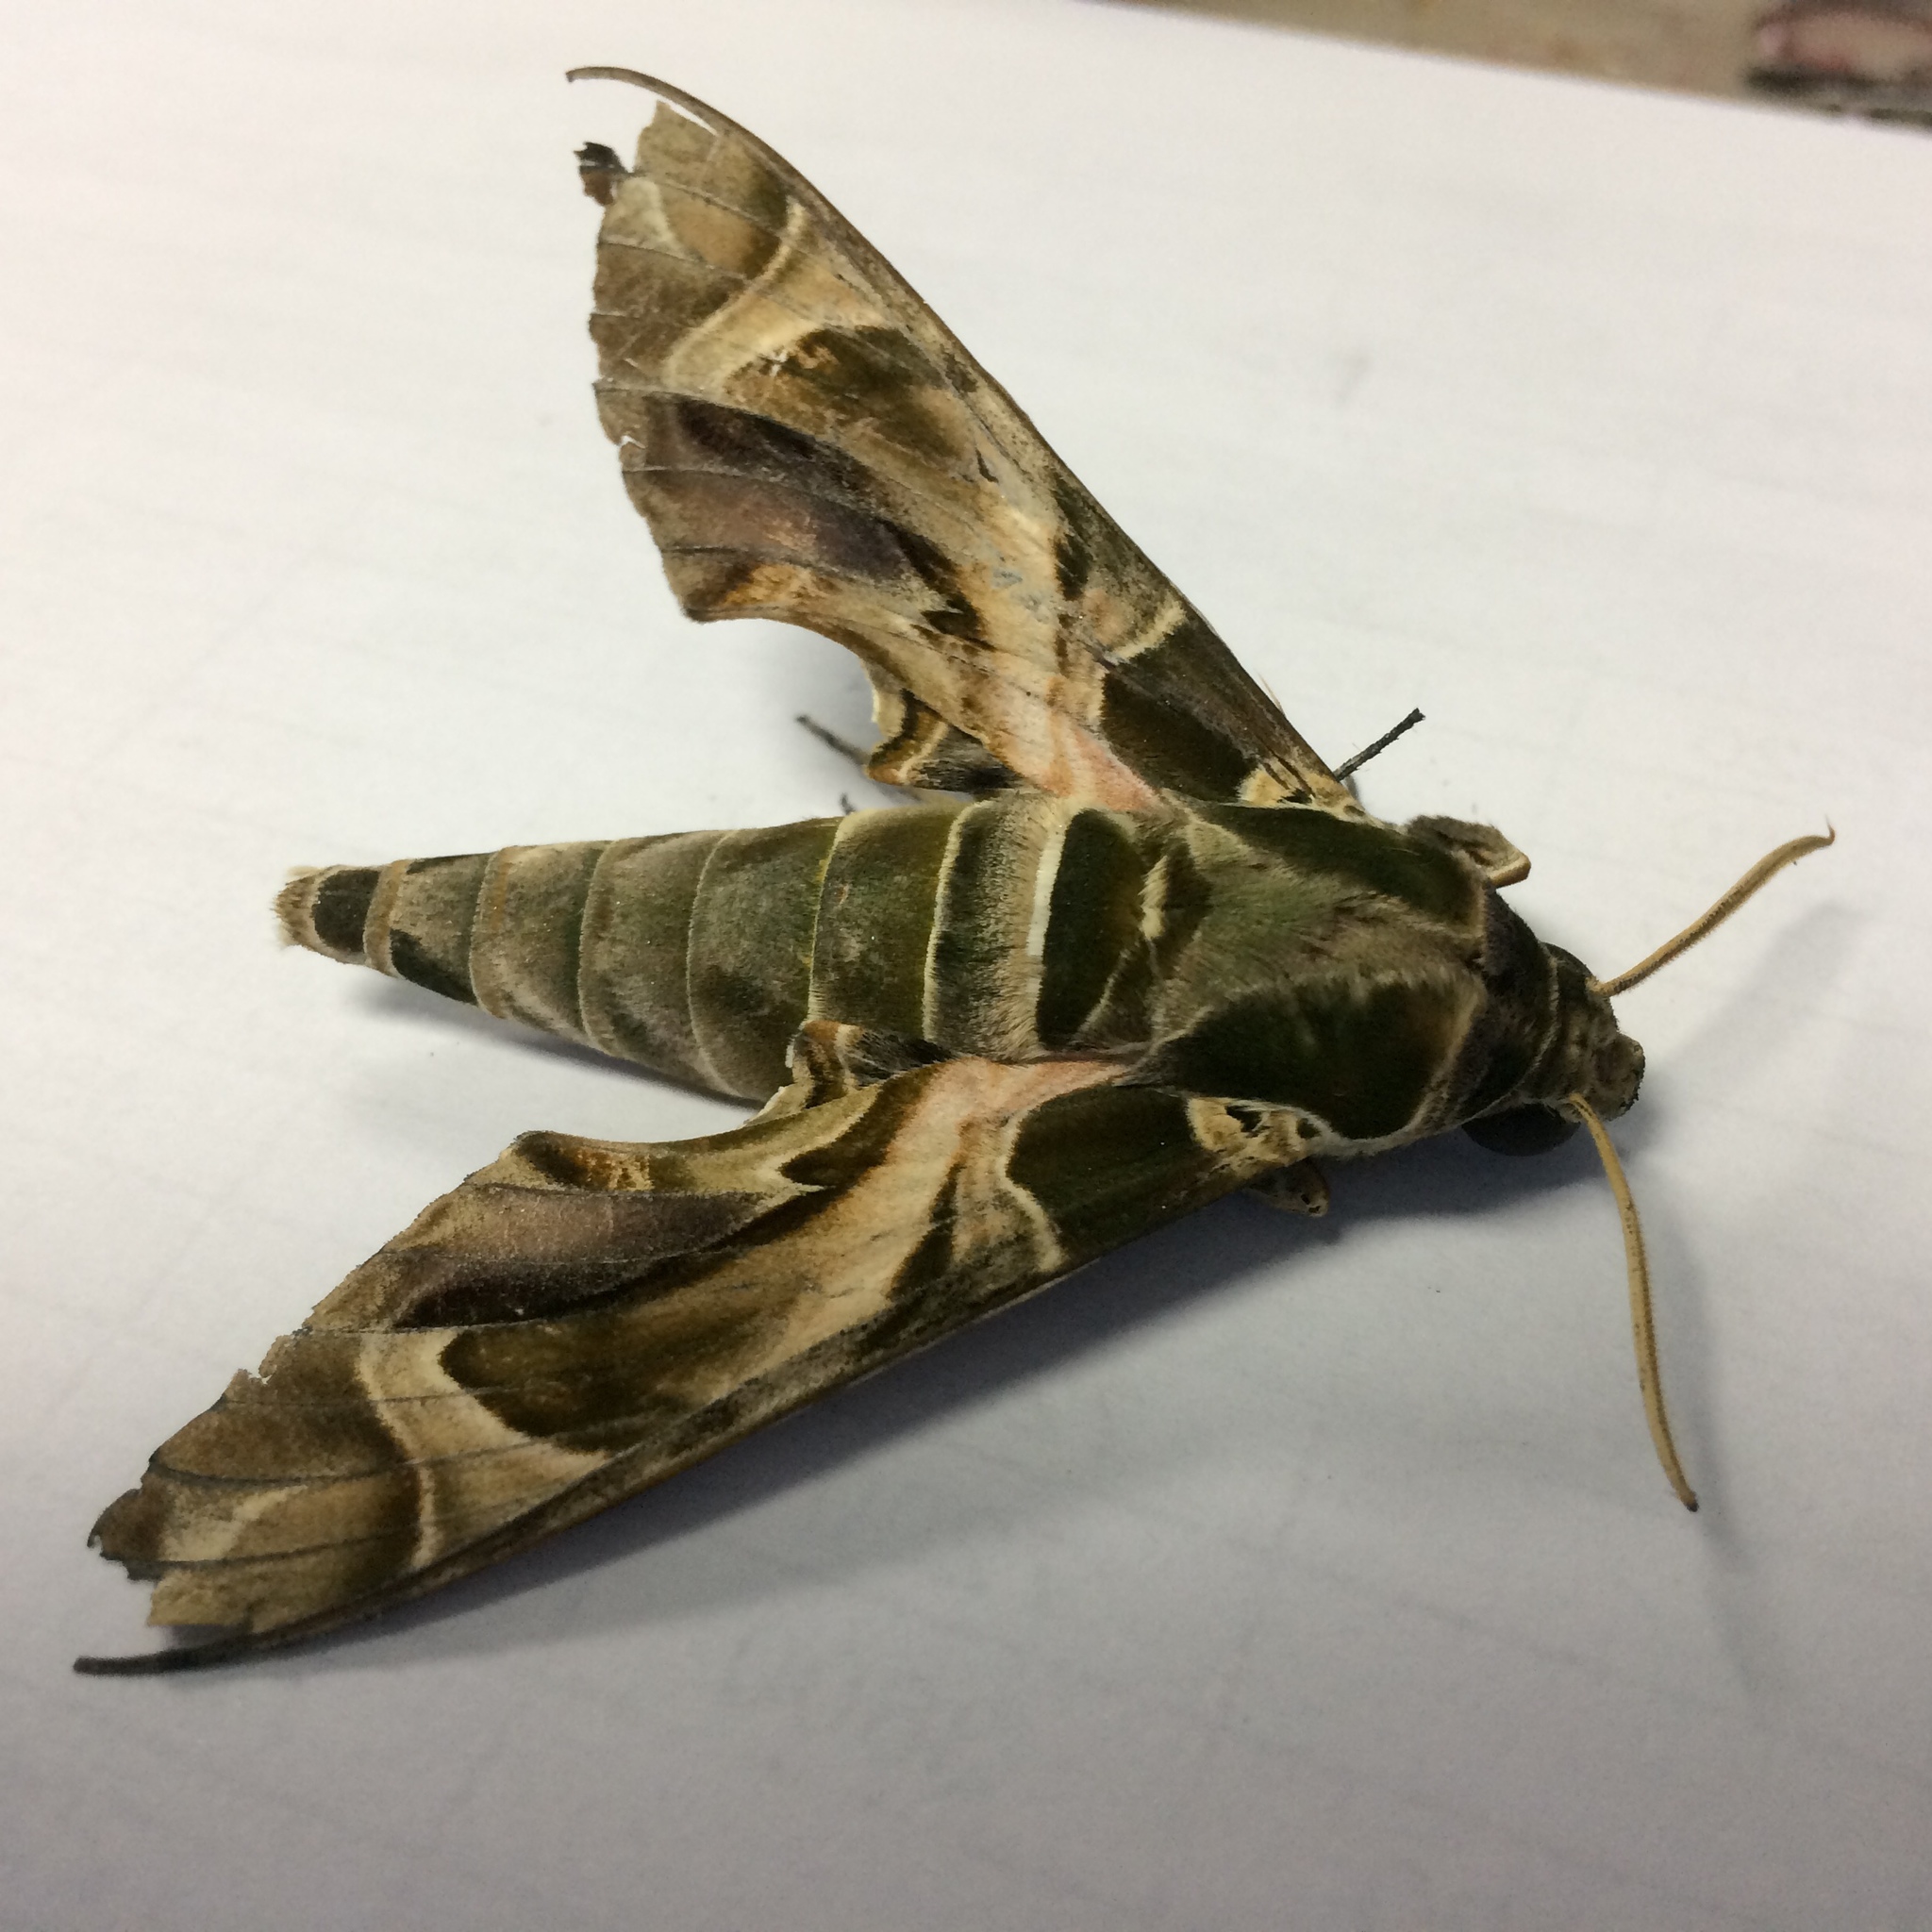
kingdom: Animalia
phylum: Arthropoda
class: Insecta
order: Lepidoptera
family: Sphingidae
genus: Daphnis
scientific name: Daphnis nerii
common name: Oleander hawk-moth
